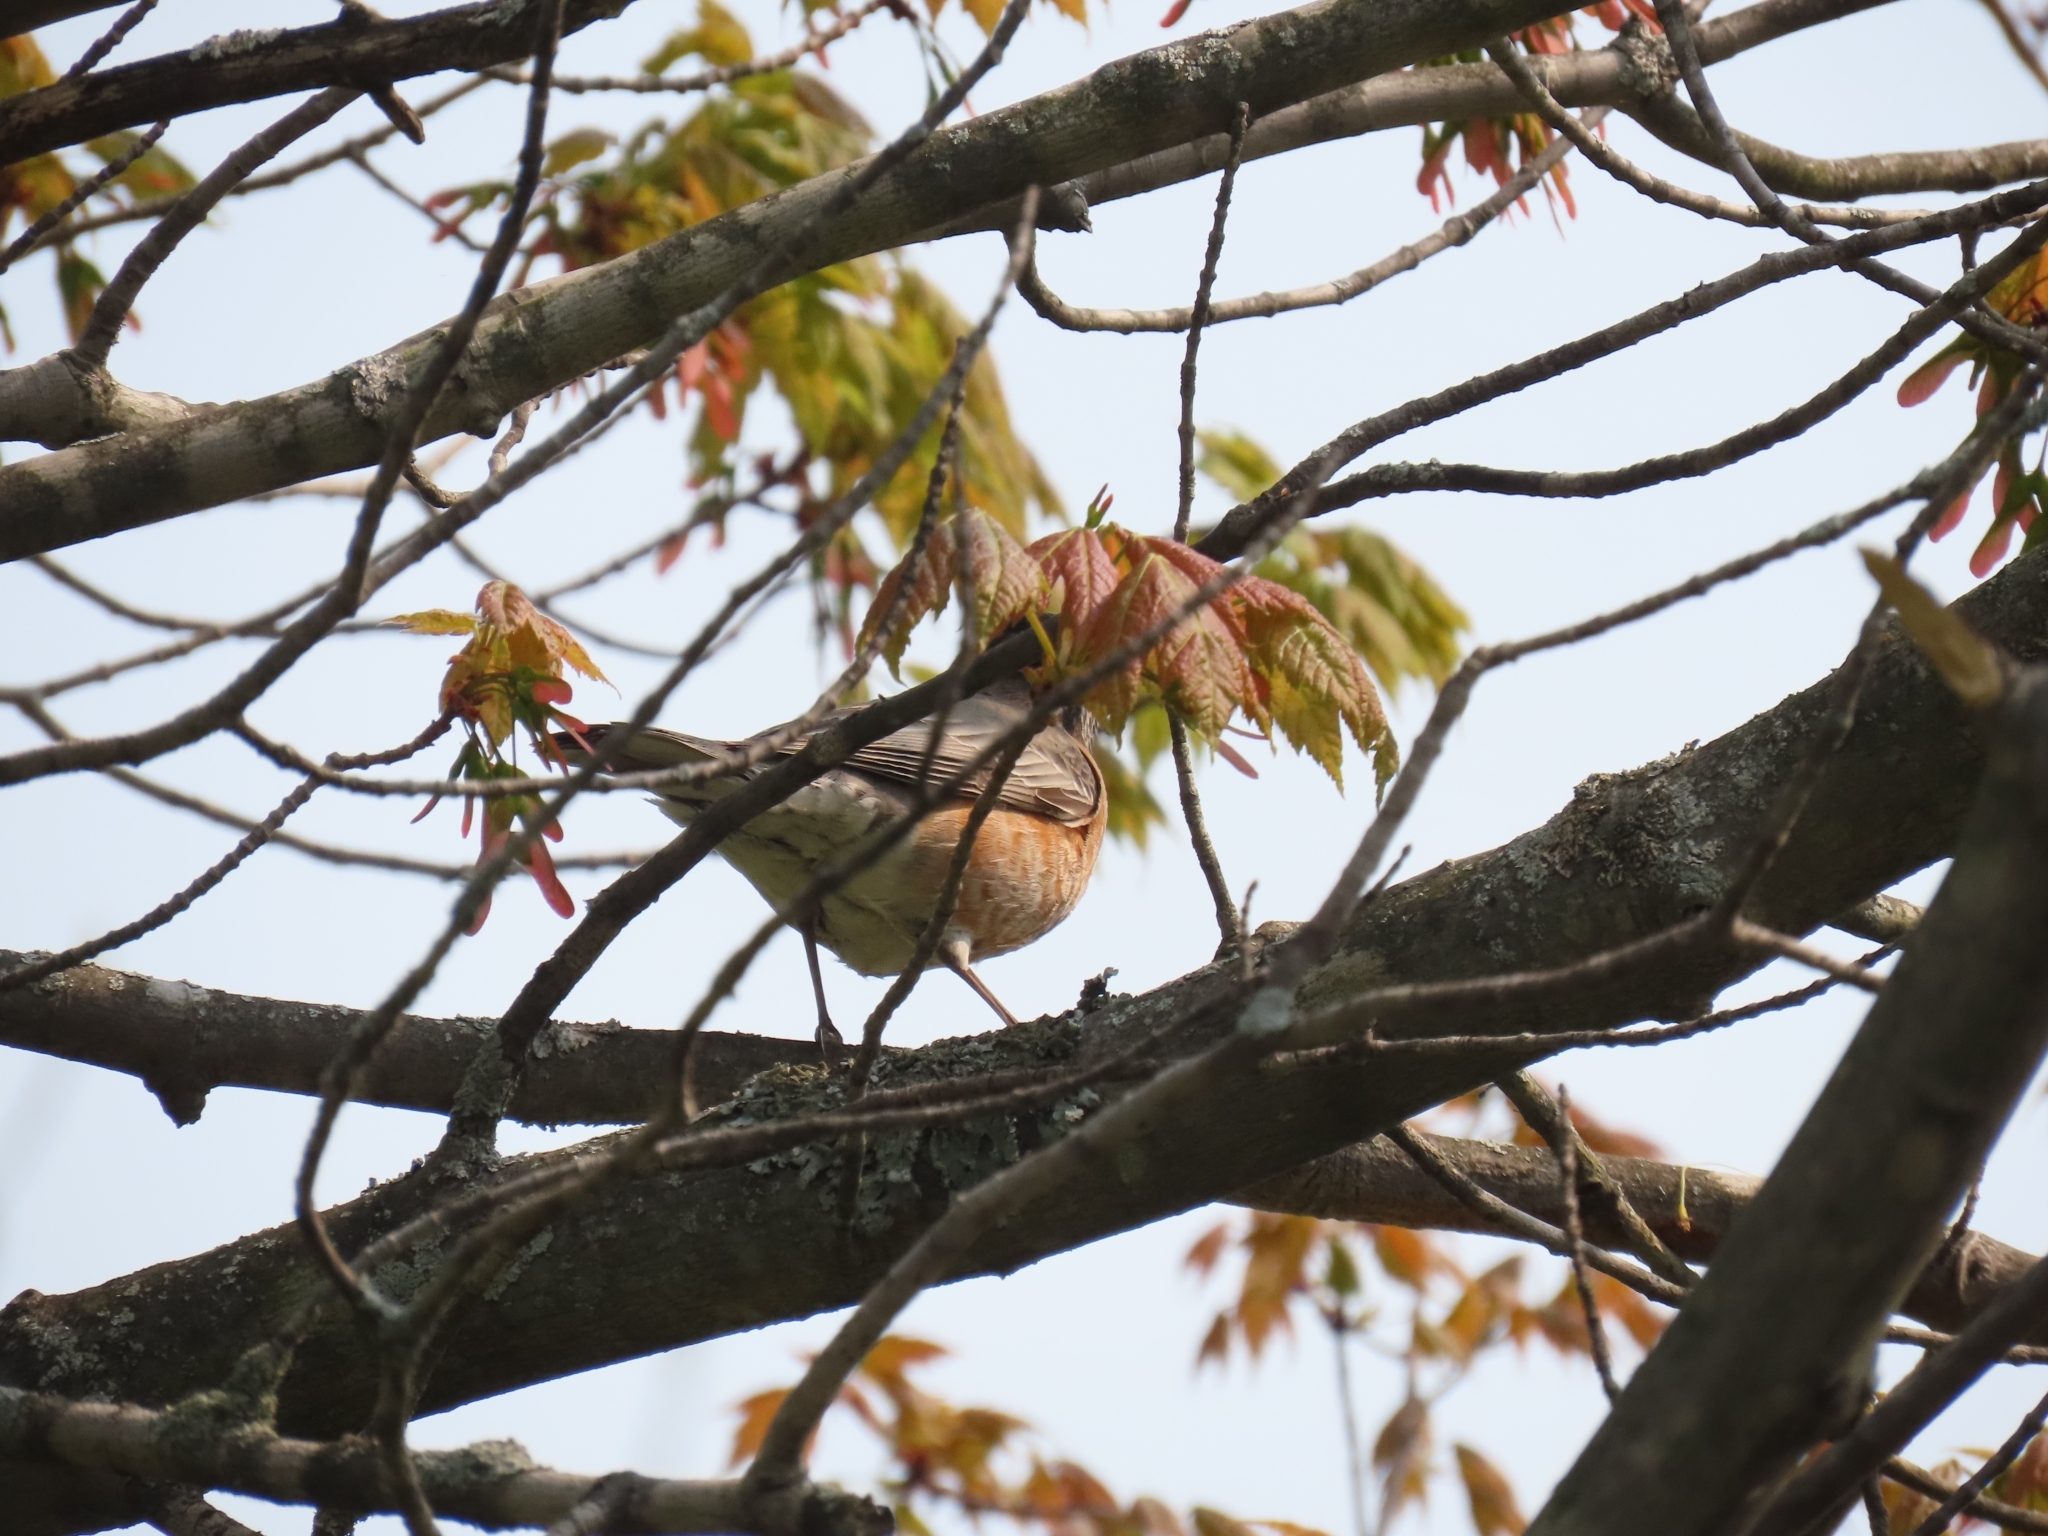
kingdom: Animalia
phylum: Chordata
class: Aves
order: Passeriformes
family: Turdidae
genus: Turdus
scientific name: Turdus migratorius
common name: American robin
